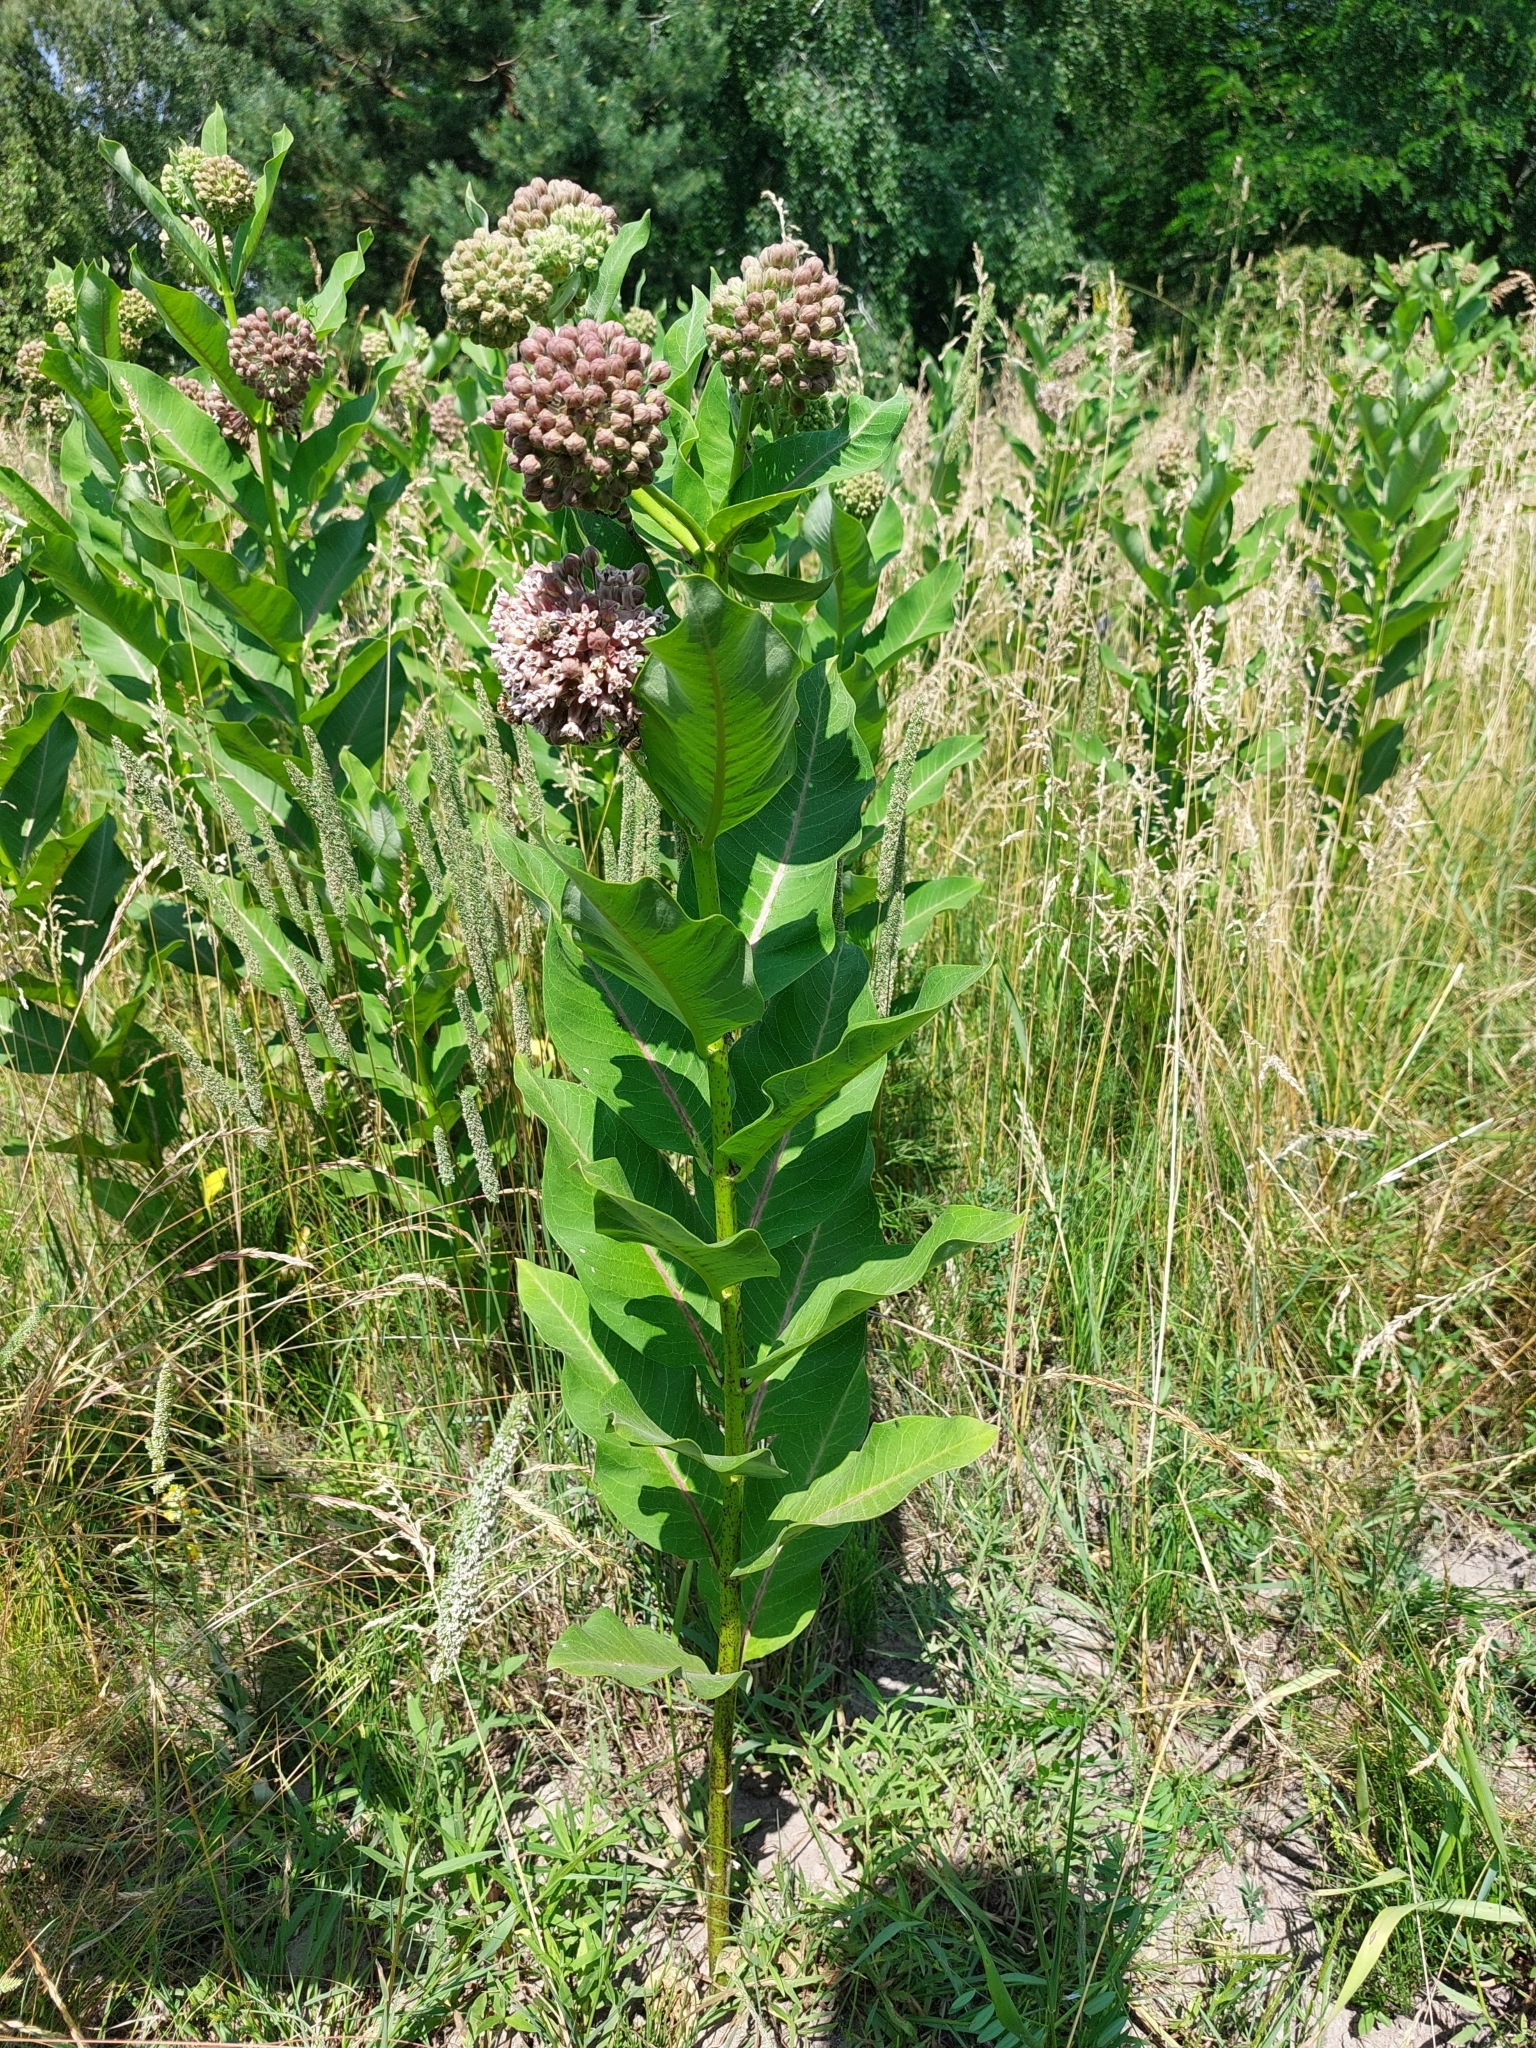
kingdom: Plantae
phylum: Tracheophyta
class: Magnoliopsida
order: Gentianales
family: Apocynaceae
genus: Asclepias
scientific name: Asclepias syriaca
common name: Common milkweed
